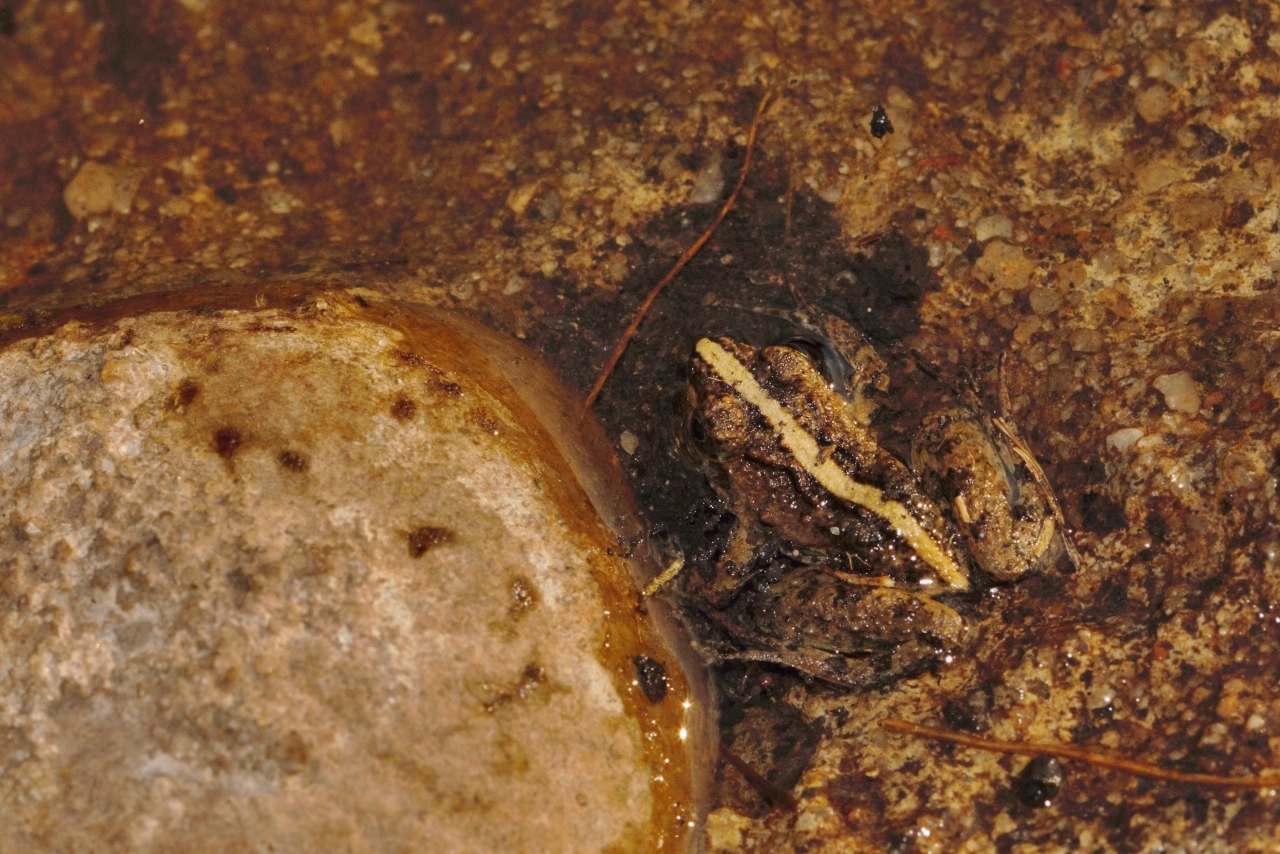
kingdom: Animalia
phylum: Chordata
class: Amphibia
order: Anura
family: Phrynobatrachidae
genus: Phrynobatrachus
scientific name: Phrynobatrachus acridoides
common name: East african puddle frog
